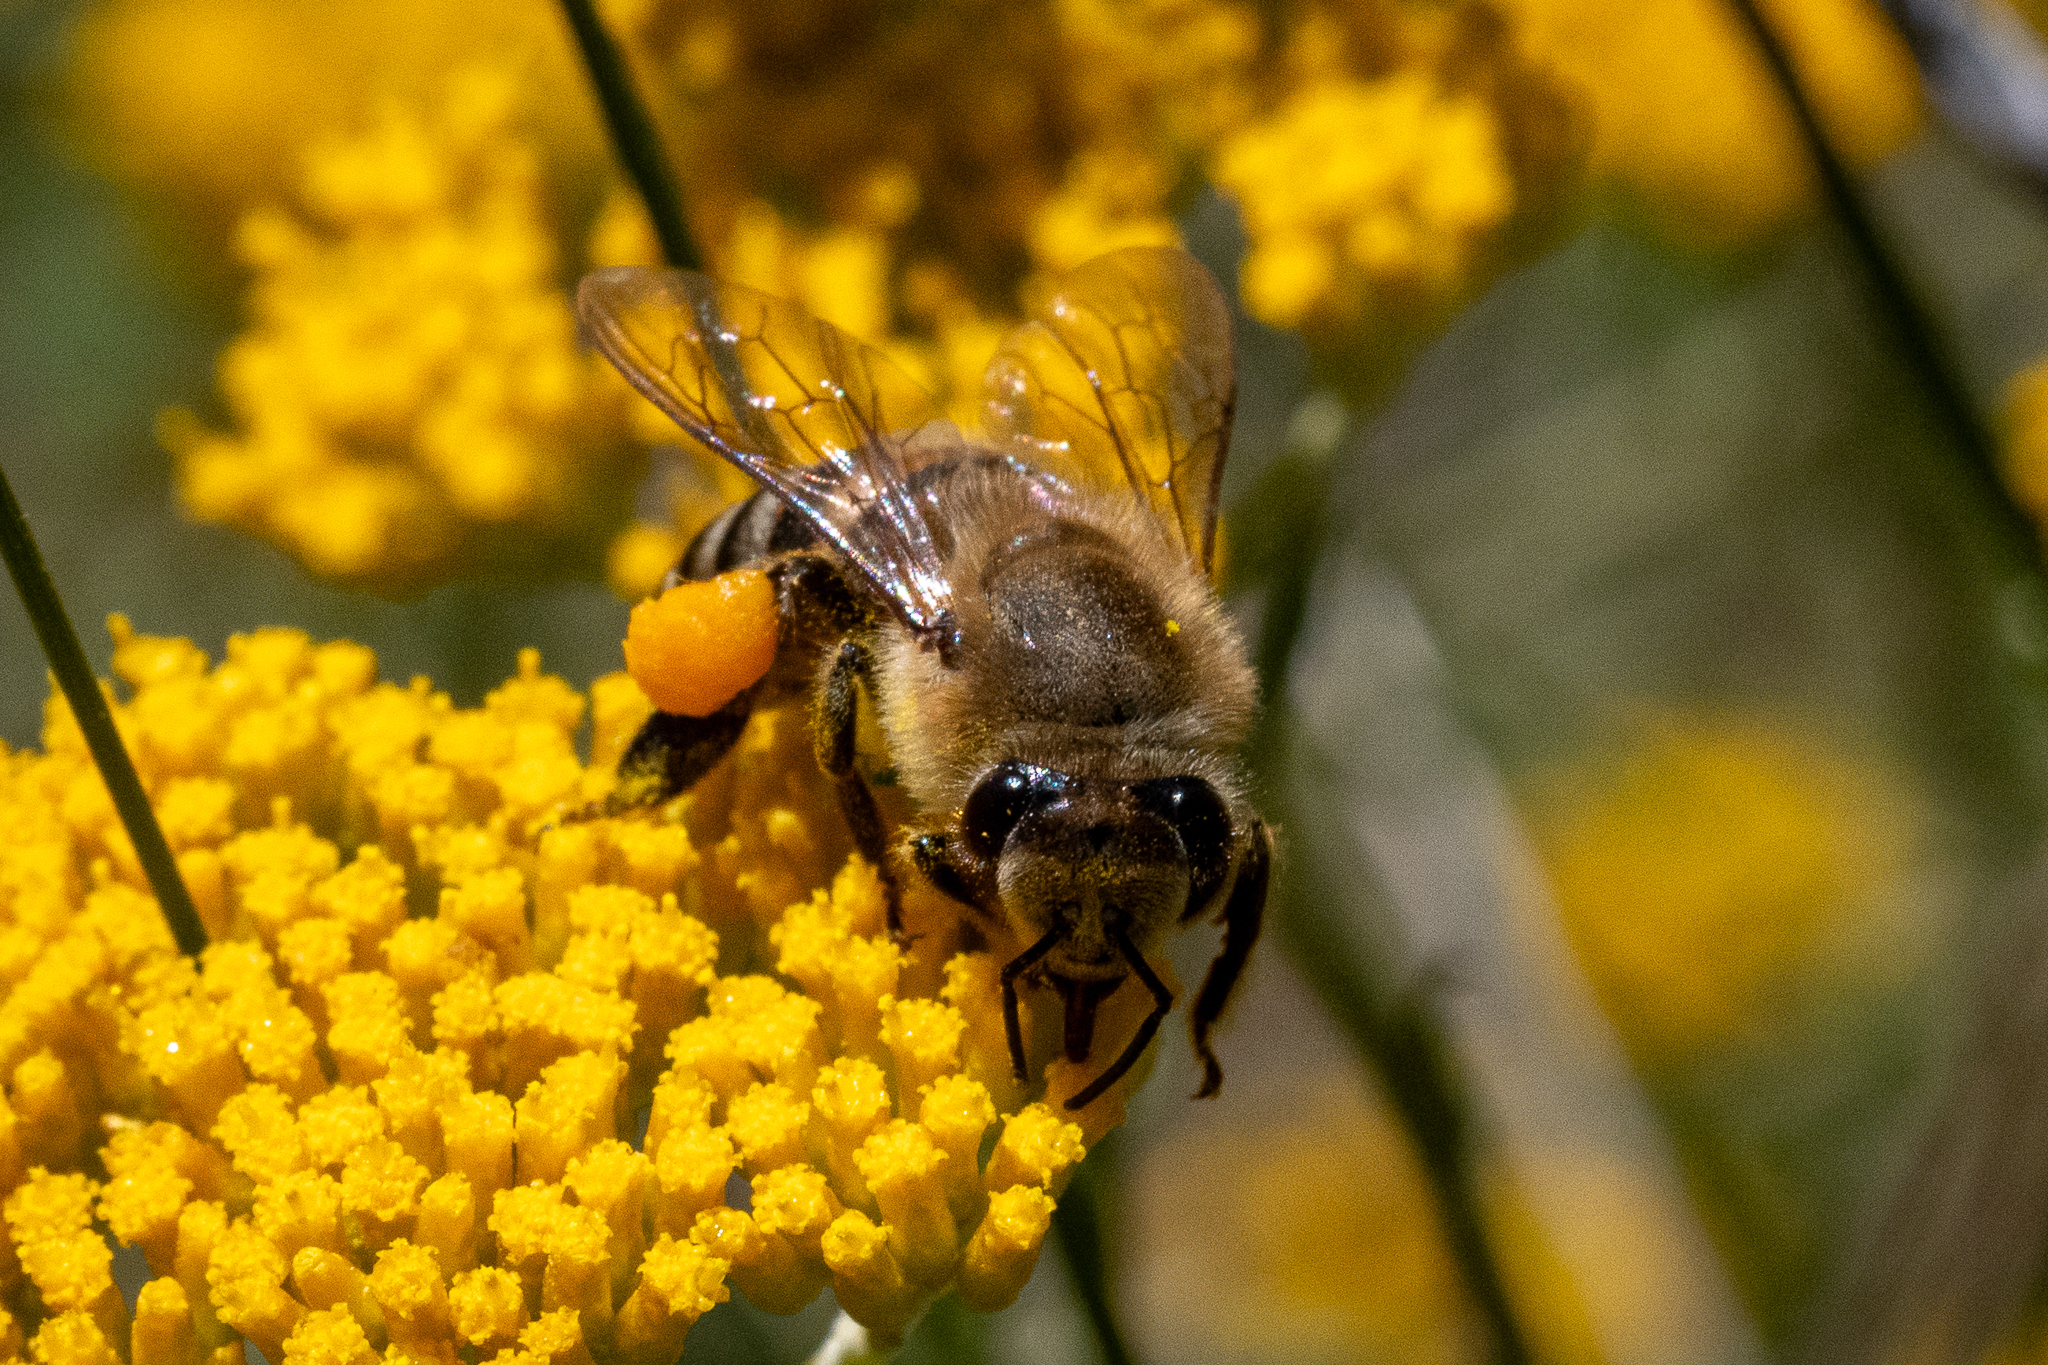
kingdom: Animalia
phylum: Arthropoda
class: Insecta
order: Hymenoptera
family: Apidae
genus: Apis
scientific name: Apis mellifera
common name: Honey bee
